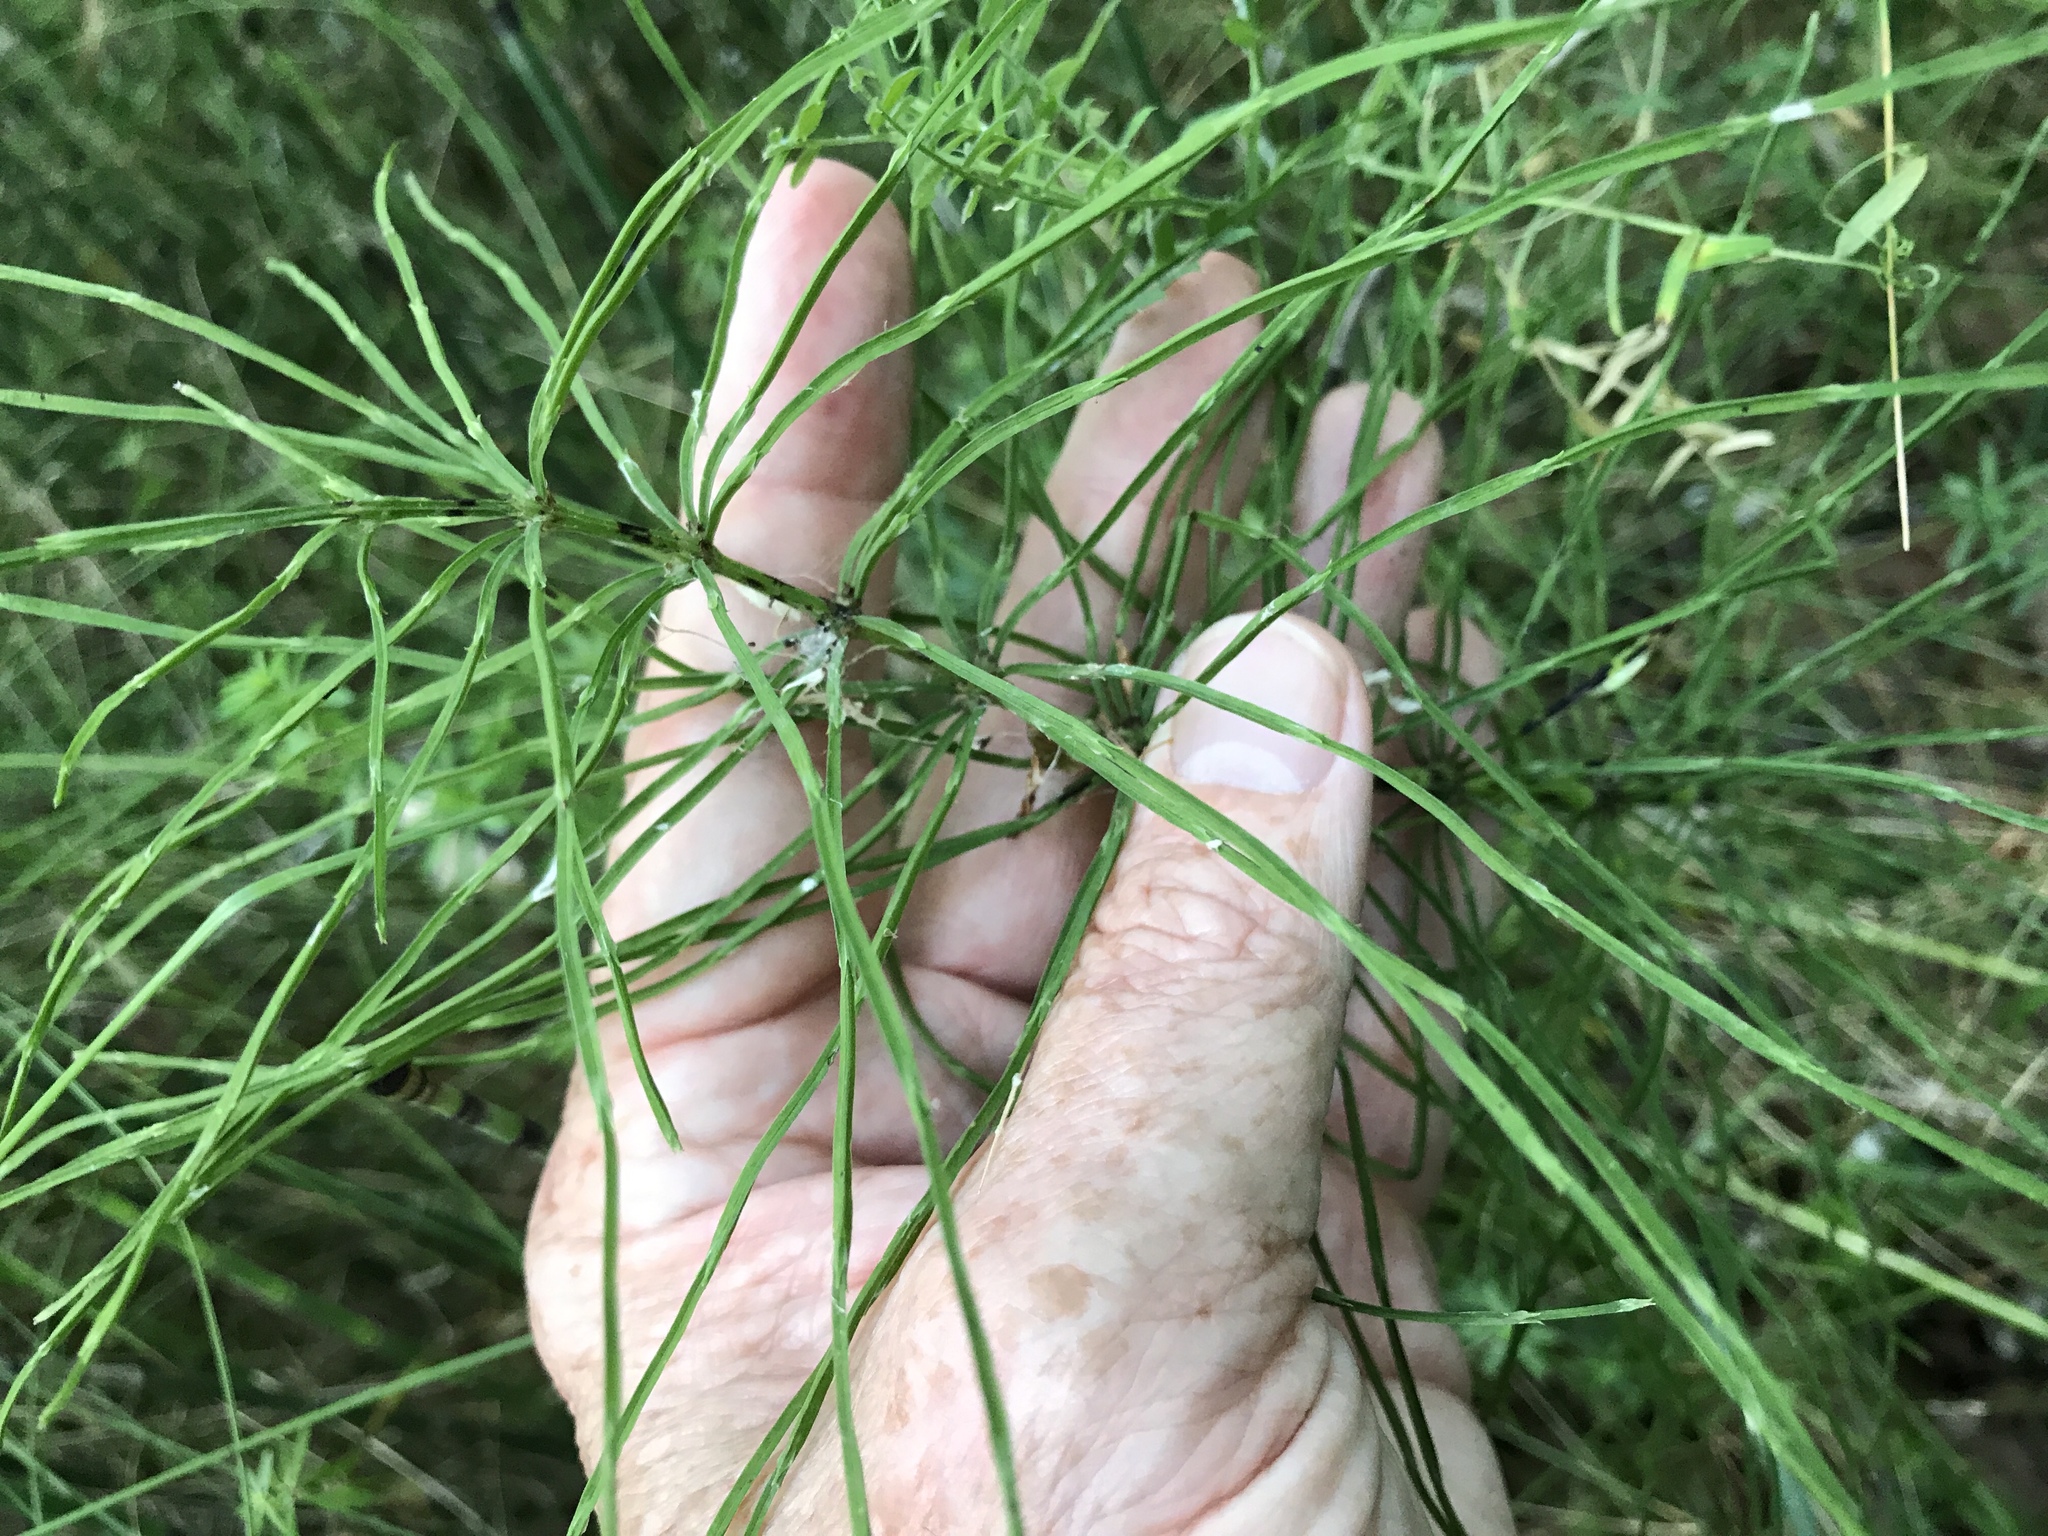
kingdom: Plantae
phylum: Tracheophyta
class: Polypodiopsida
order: Equisetales
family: Equisetaceae
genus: Equisetum
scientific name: Equisetum arvense
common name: Field horsetail
